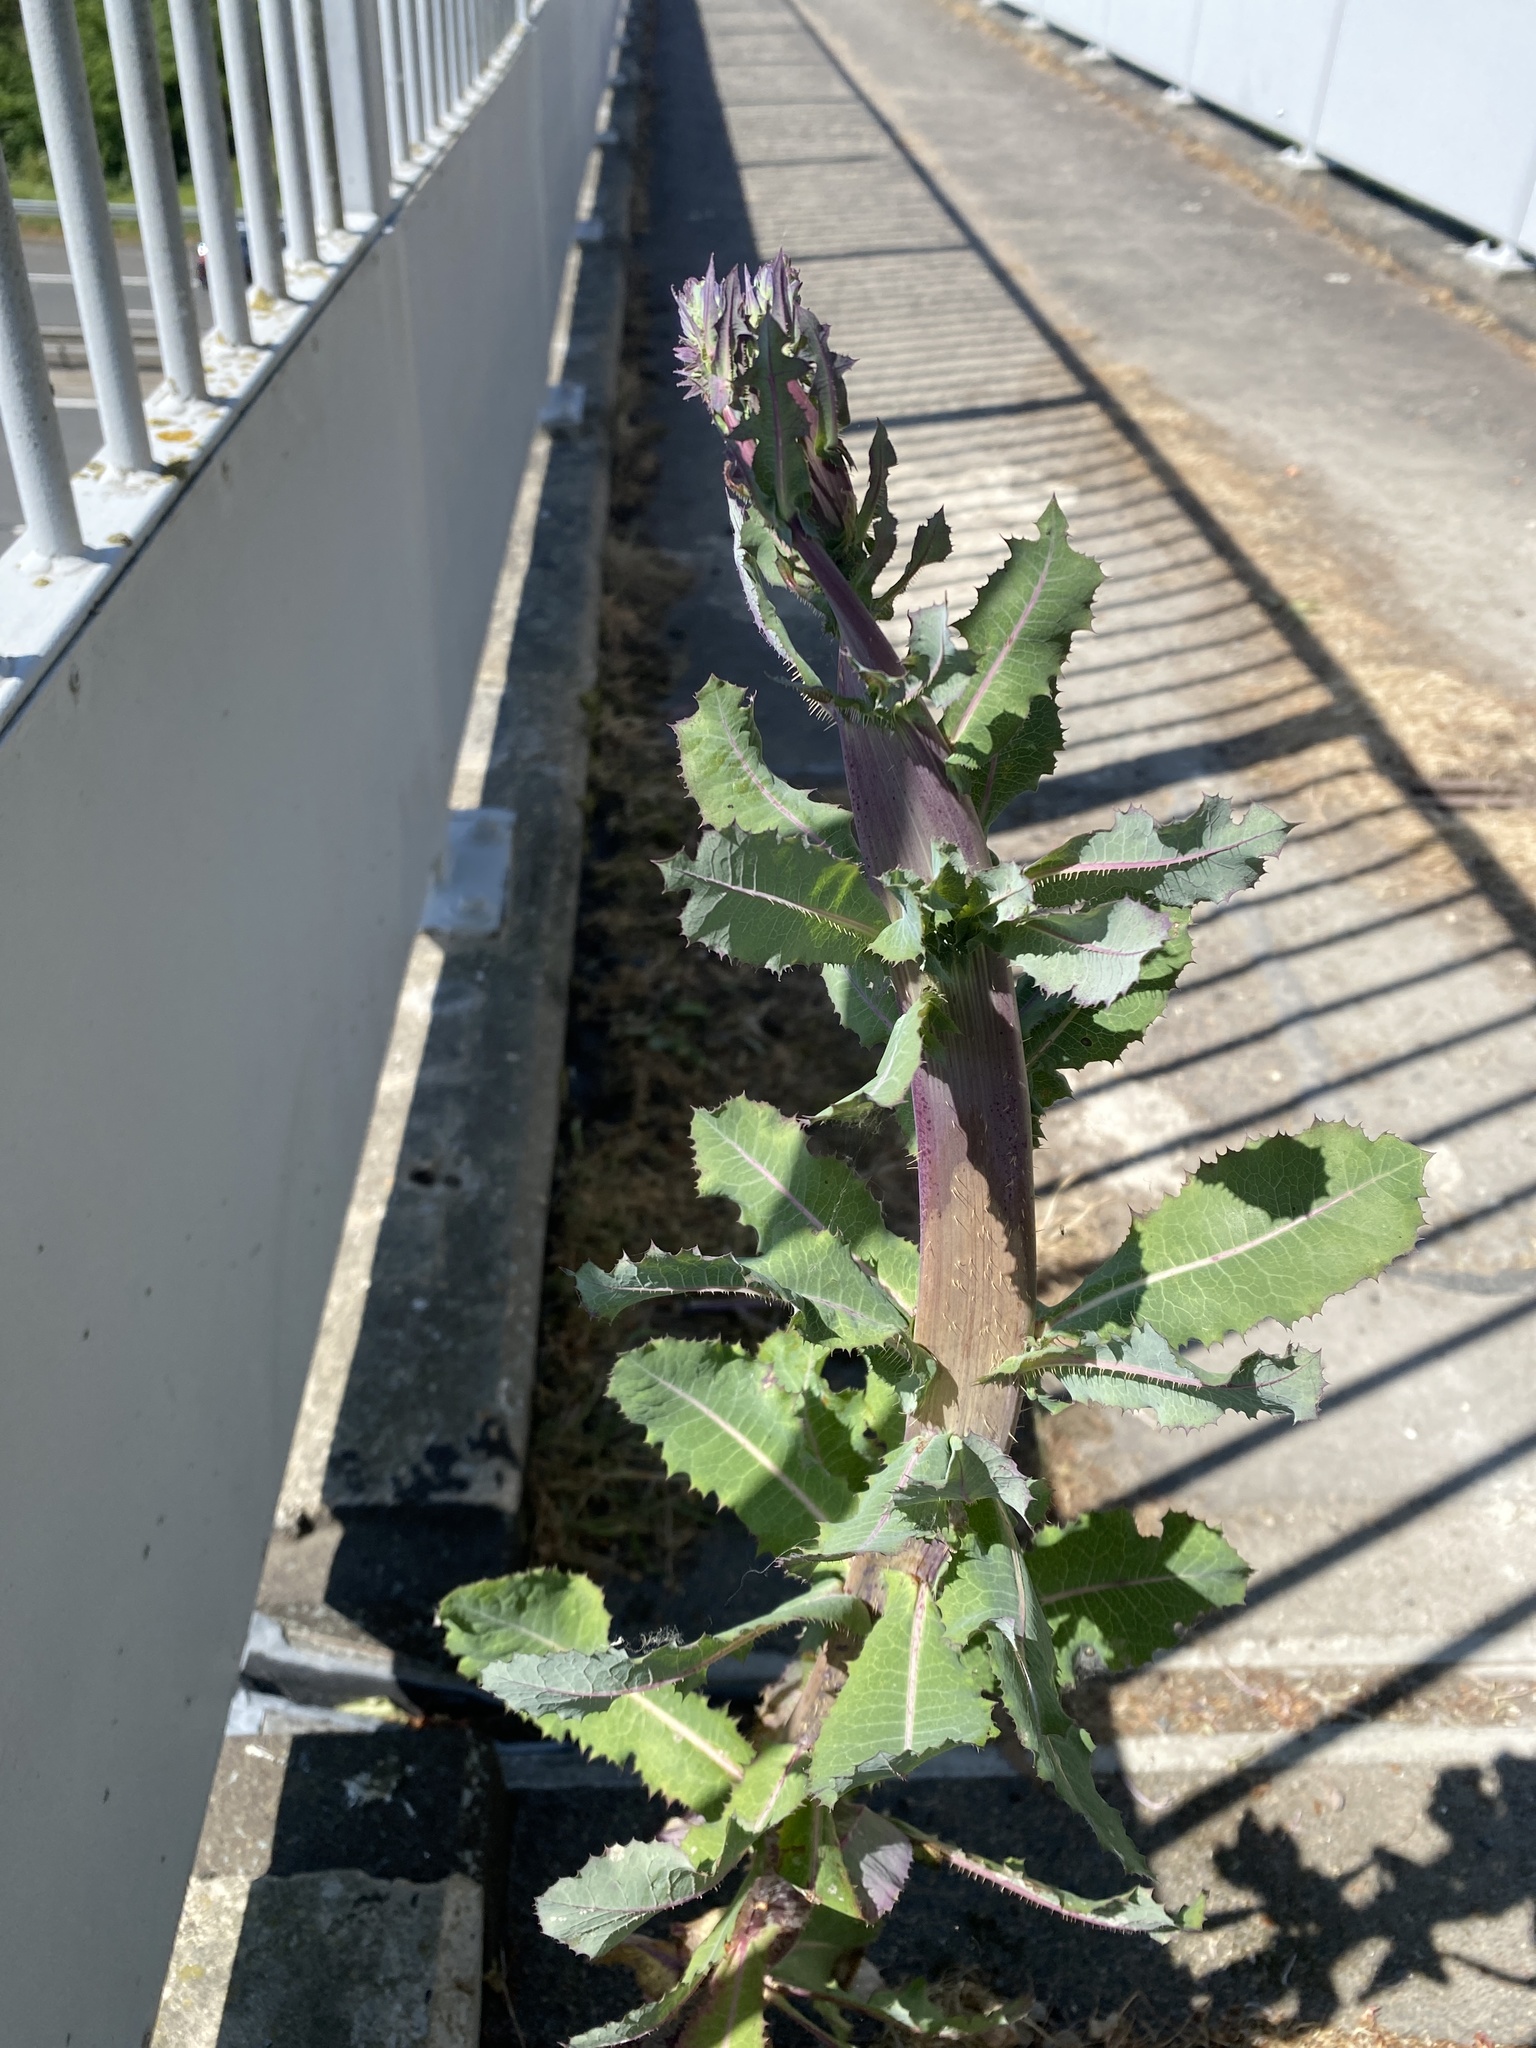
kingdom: Plantae
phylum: Tracheophyta
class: Magnoliopsida
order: Asterales
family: Asteraceae
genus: Lactuca
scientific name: Lactuca serriola
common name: Prickly lettuce
